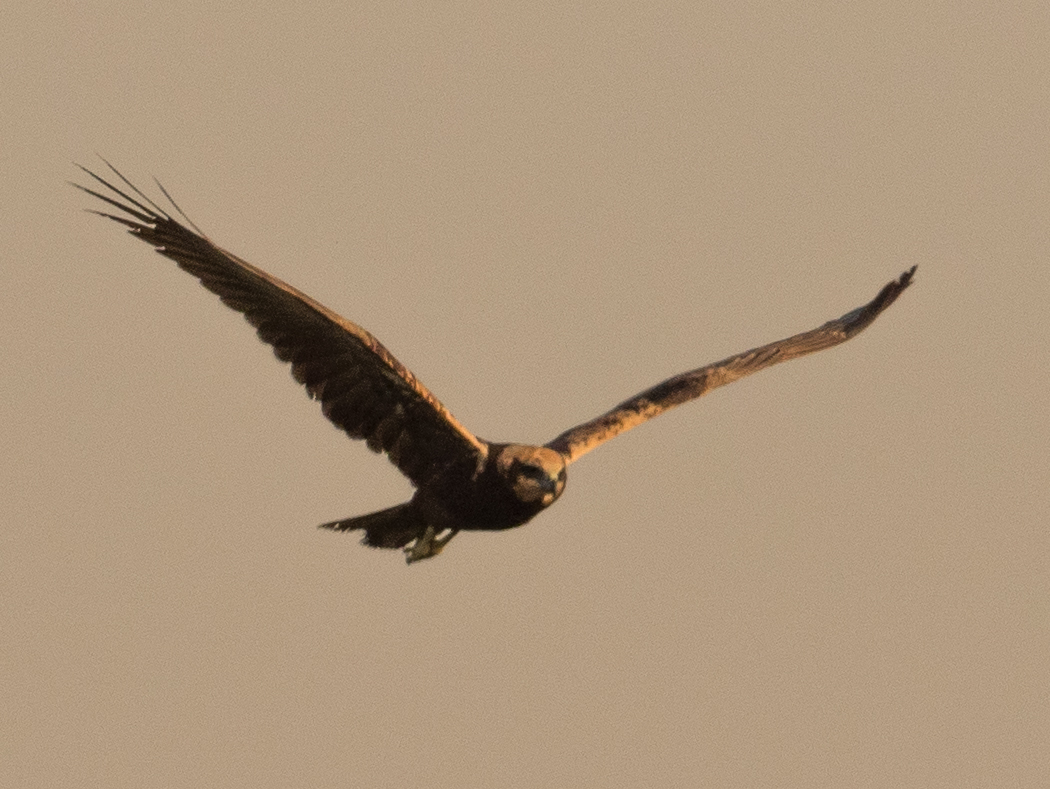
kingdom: Animalia
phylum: Chordata
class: Aves
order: Accipitriformes
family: Accipitridae
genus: Circus
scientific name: Circus aeruginosus
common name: Western marsh harrier
